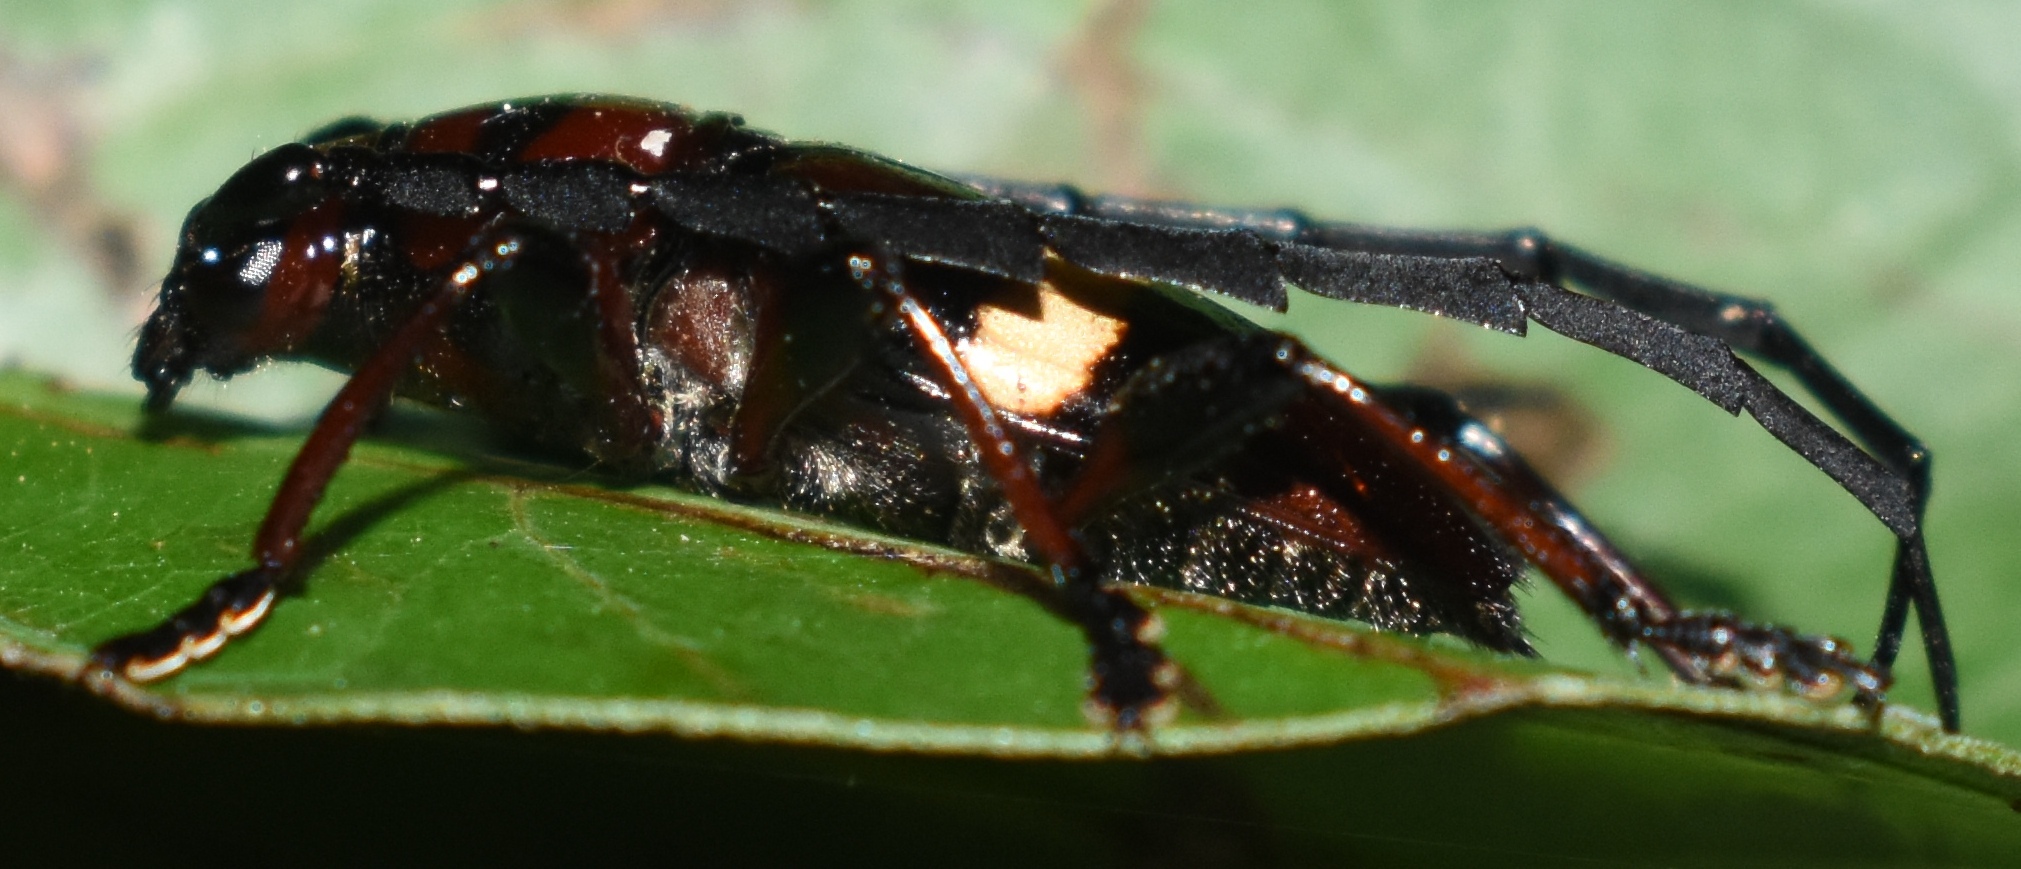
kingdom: Animalia
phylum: Arthropoda
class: Insecta
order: Coleoptera
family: Cerambycidae
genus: Lissonotus
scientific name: Lissonotus flavocinctus
